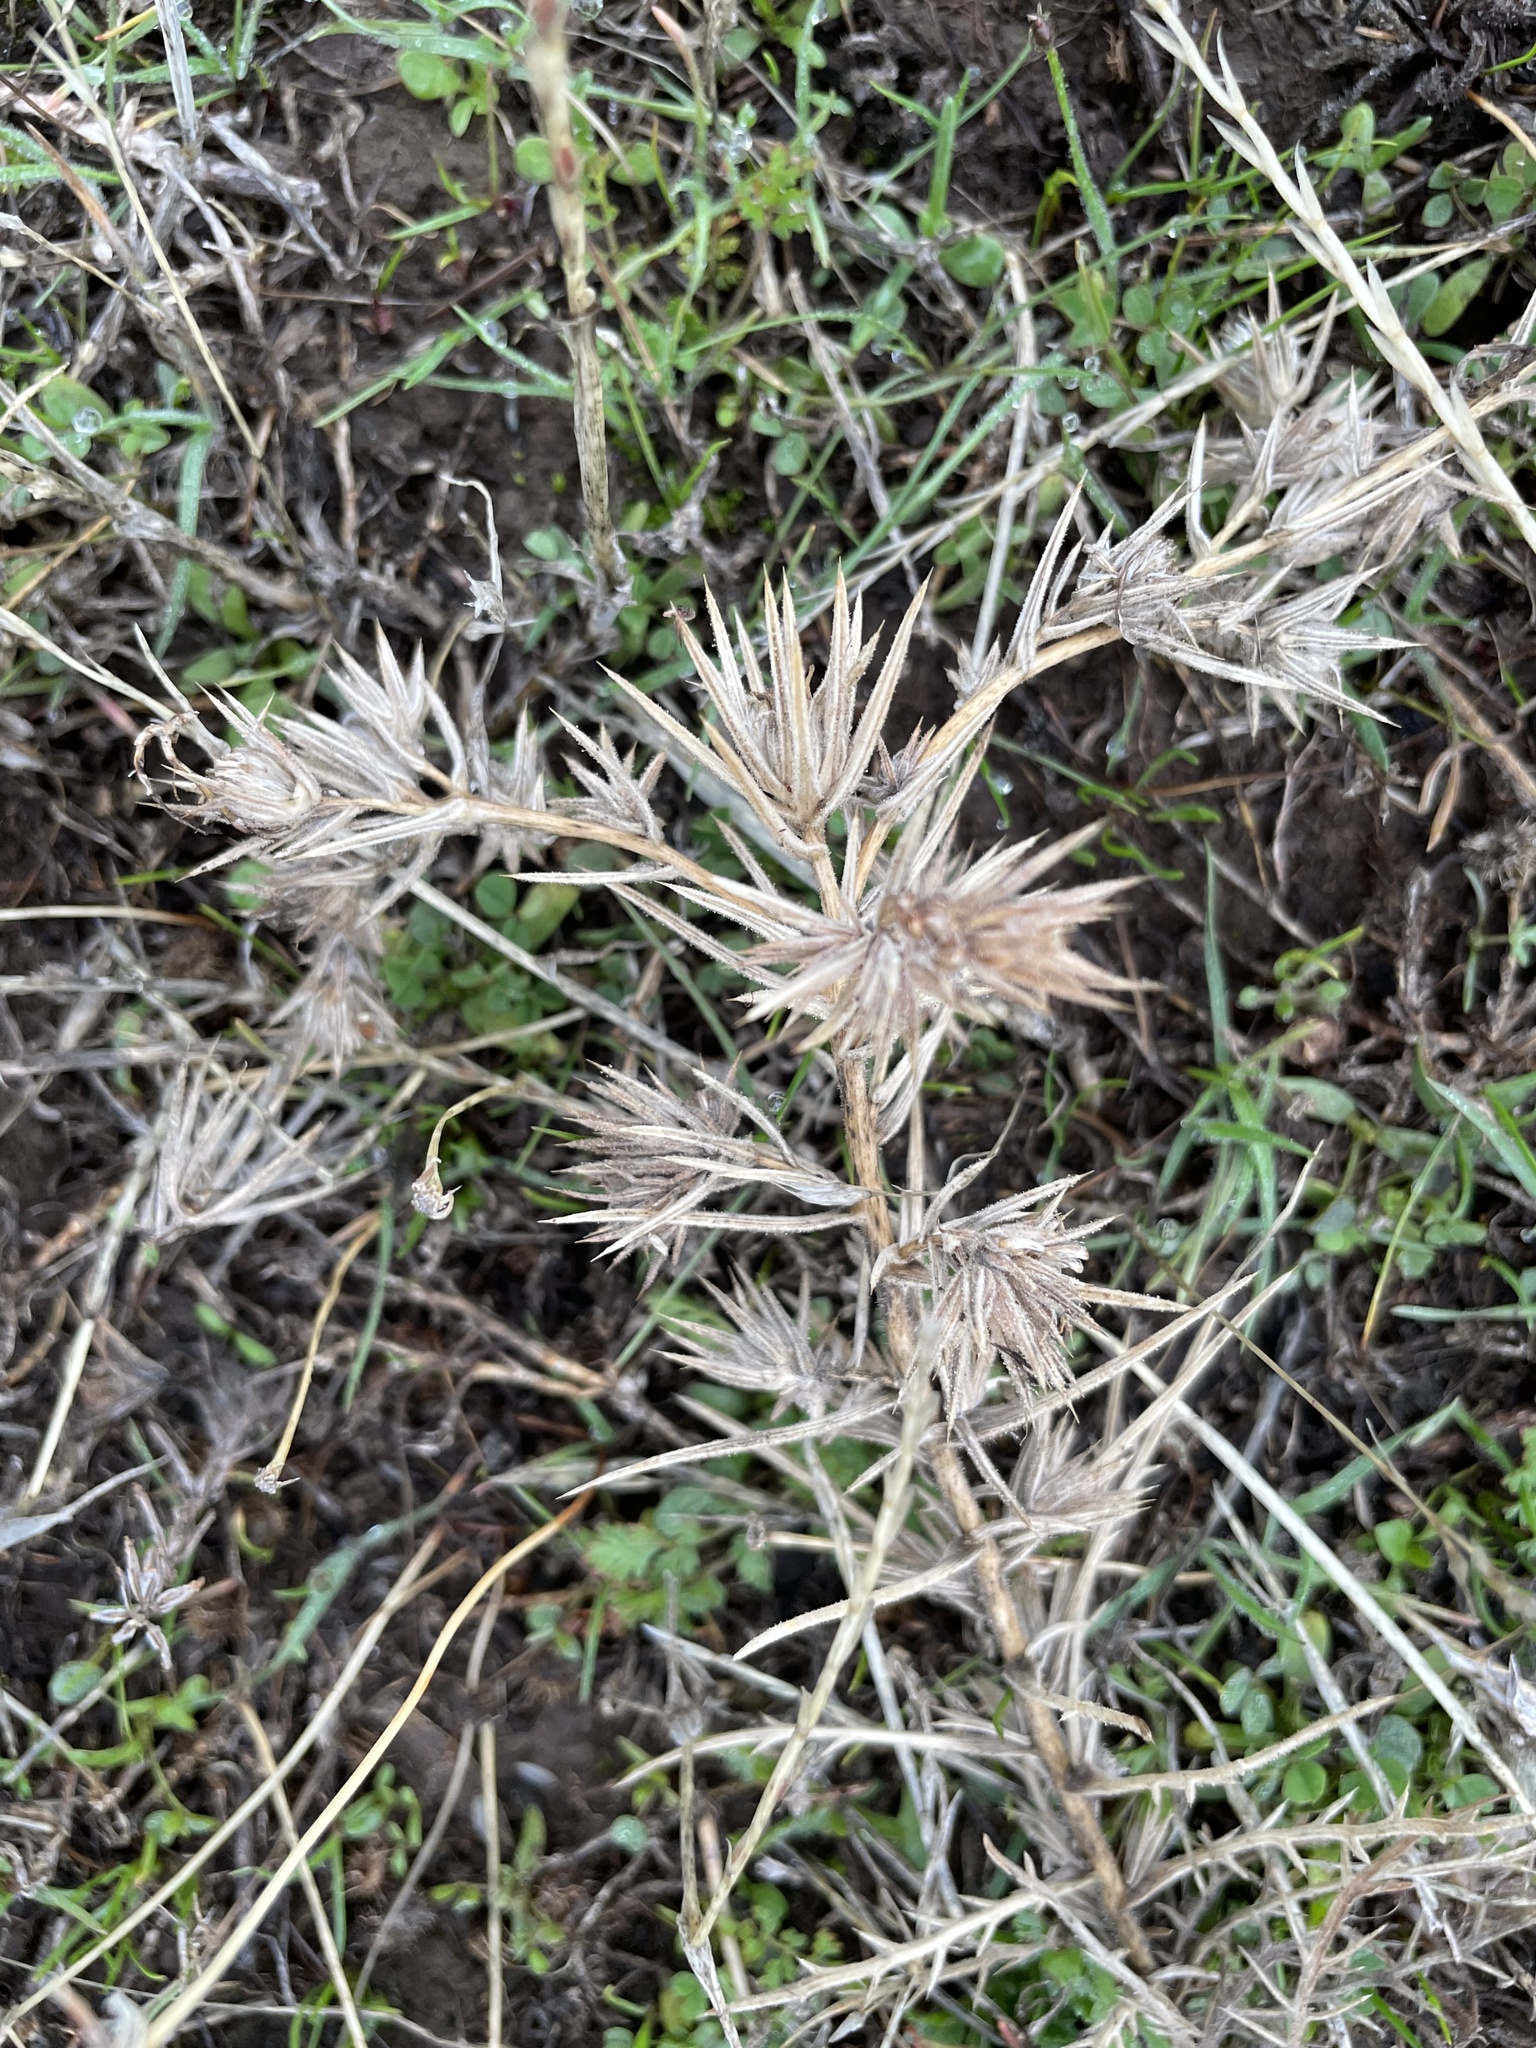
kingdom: Plantae
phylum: Tracheophyta
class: Magnoliopsida
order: Asterales
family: Asteraceae
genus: Centromadia
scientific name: Centromadia fitchii
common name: Fitch's spikeweed
